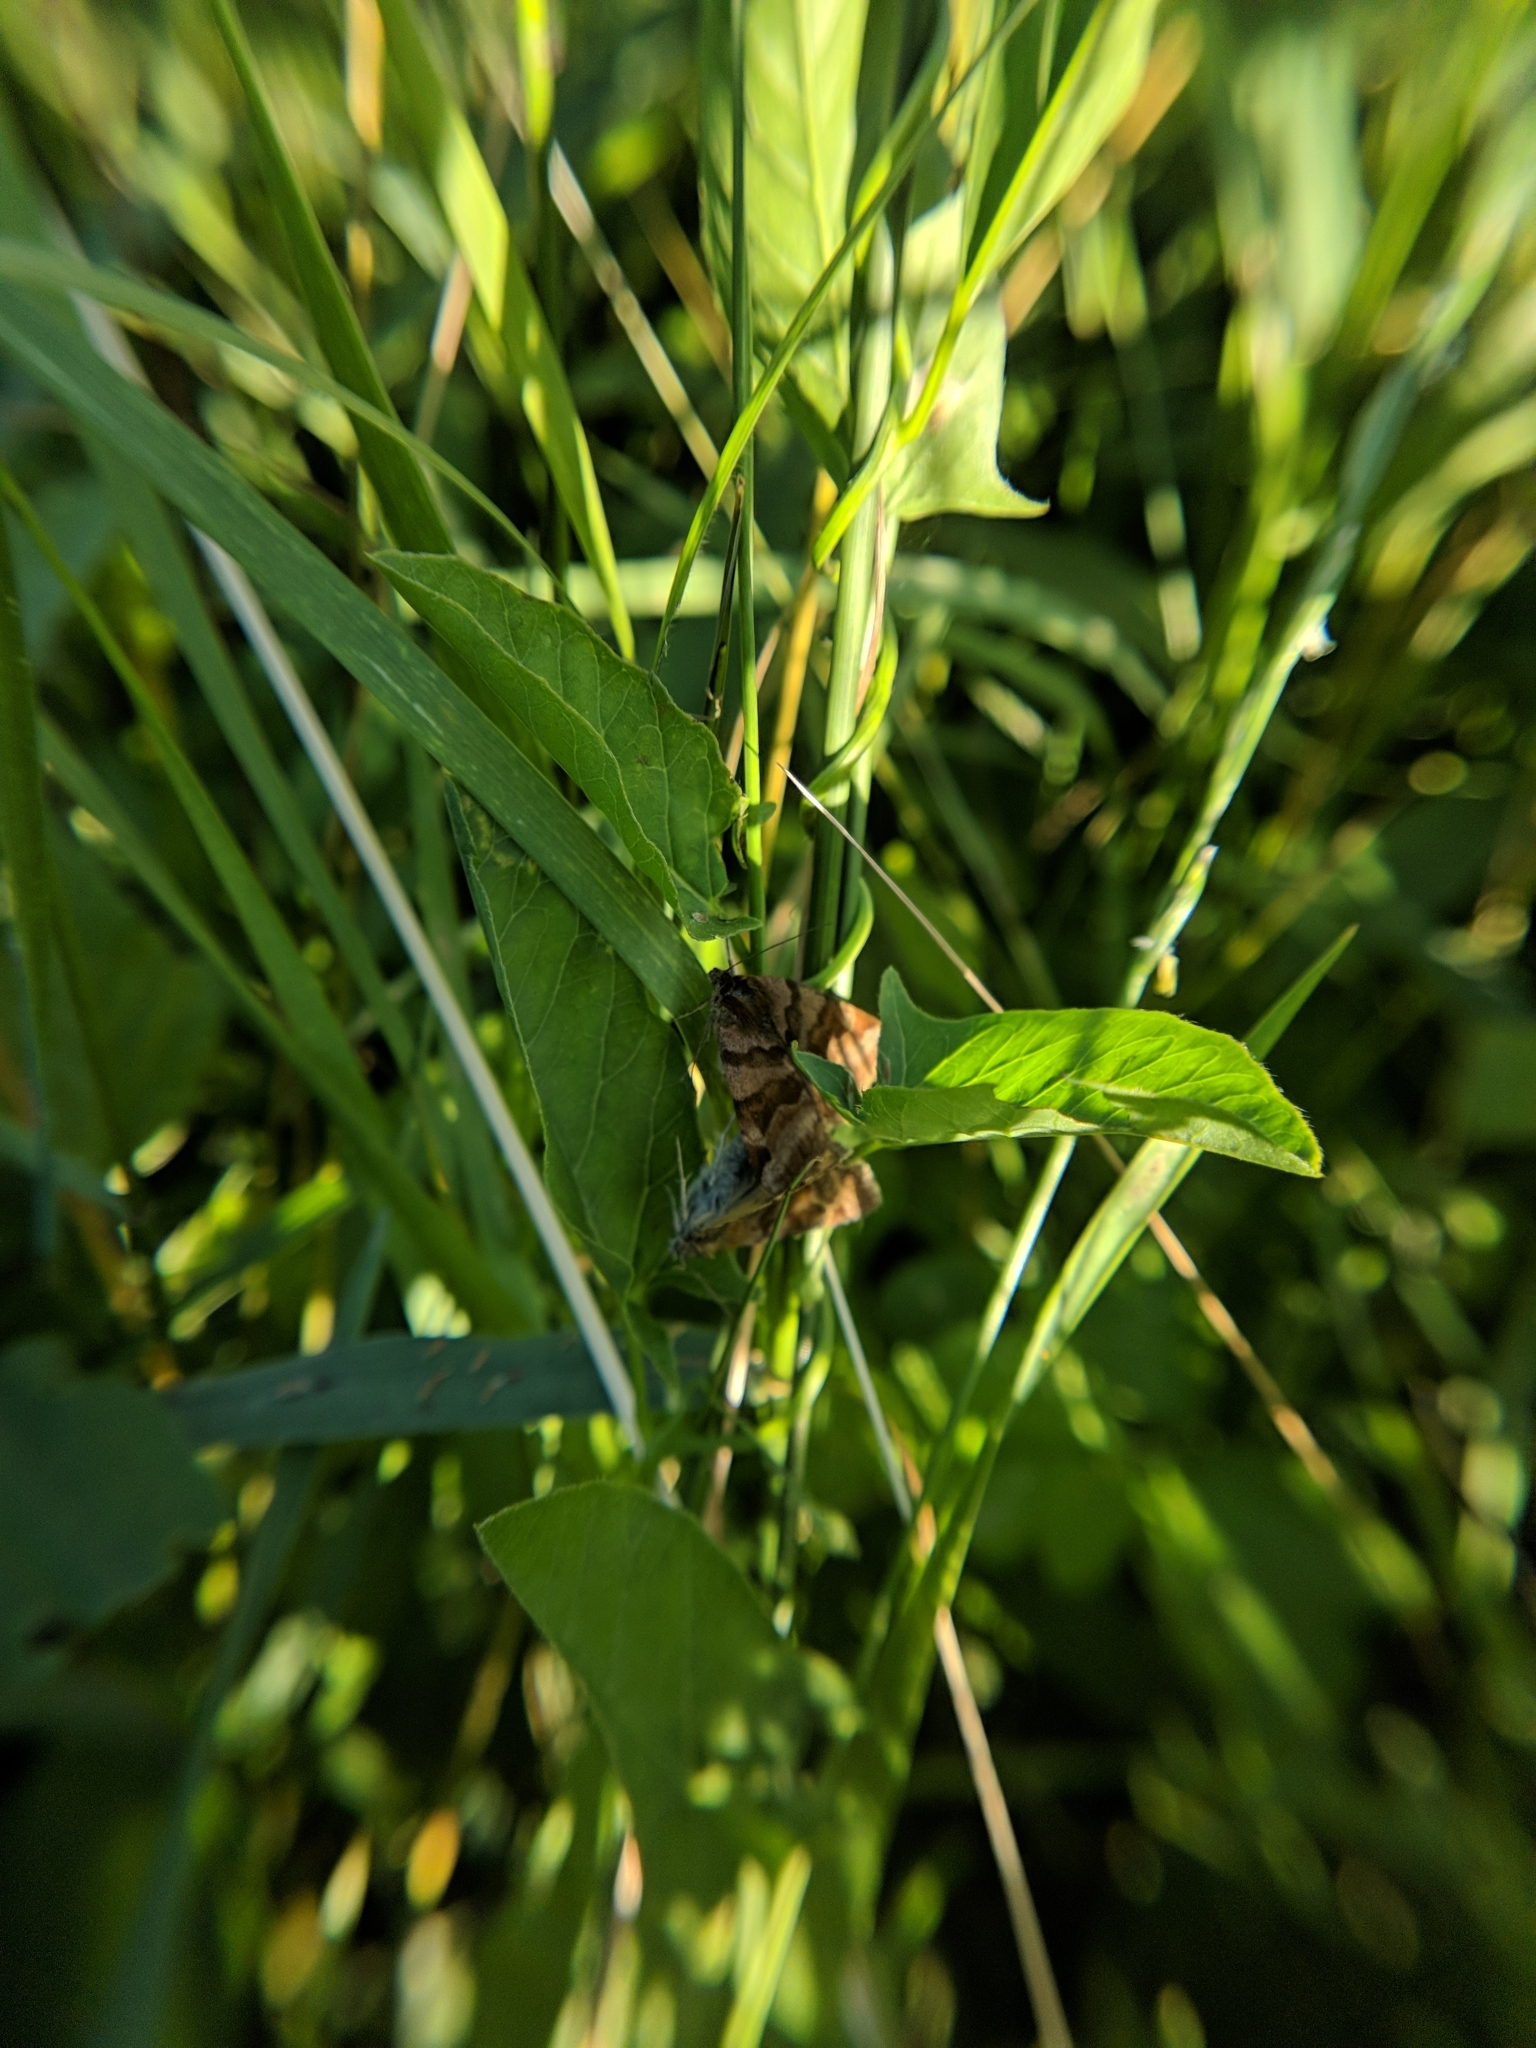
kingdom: Animalia
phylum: Arthropoda
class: Insecta
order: Lepidoptera
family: Erebidae
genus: Euclidia
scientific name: Euclidia glyphica
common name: Burnet companion
